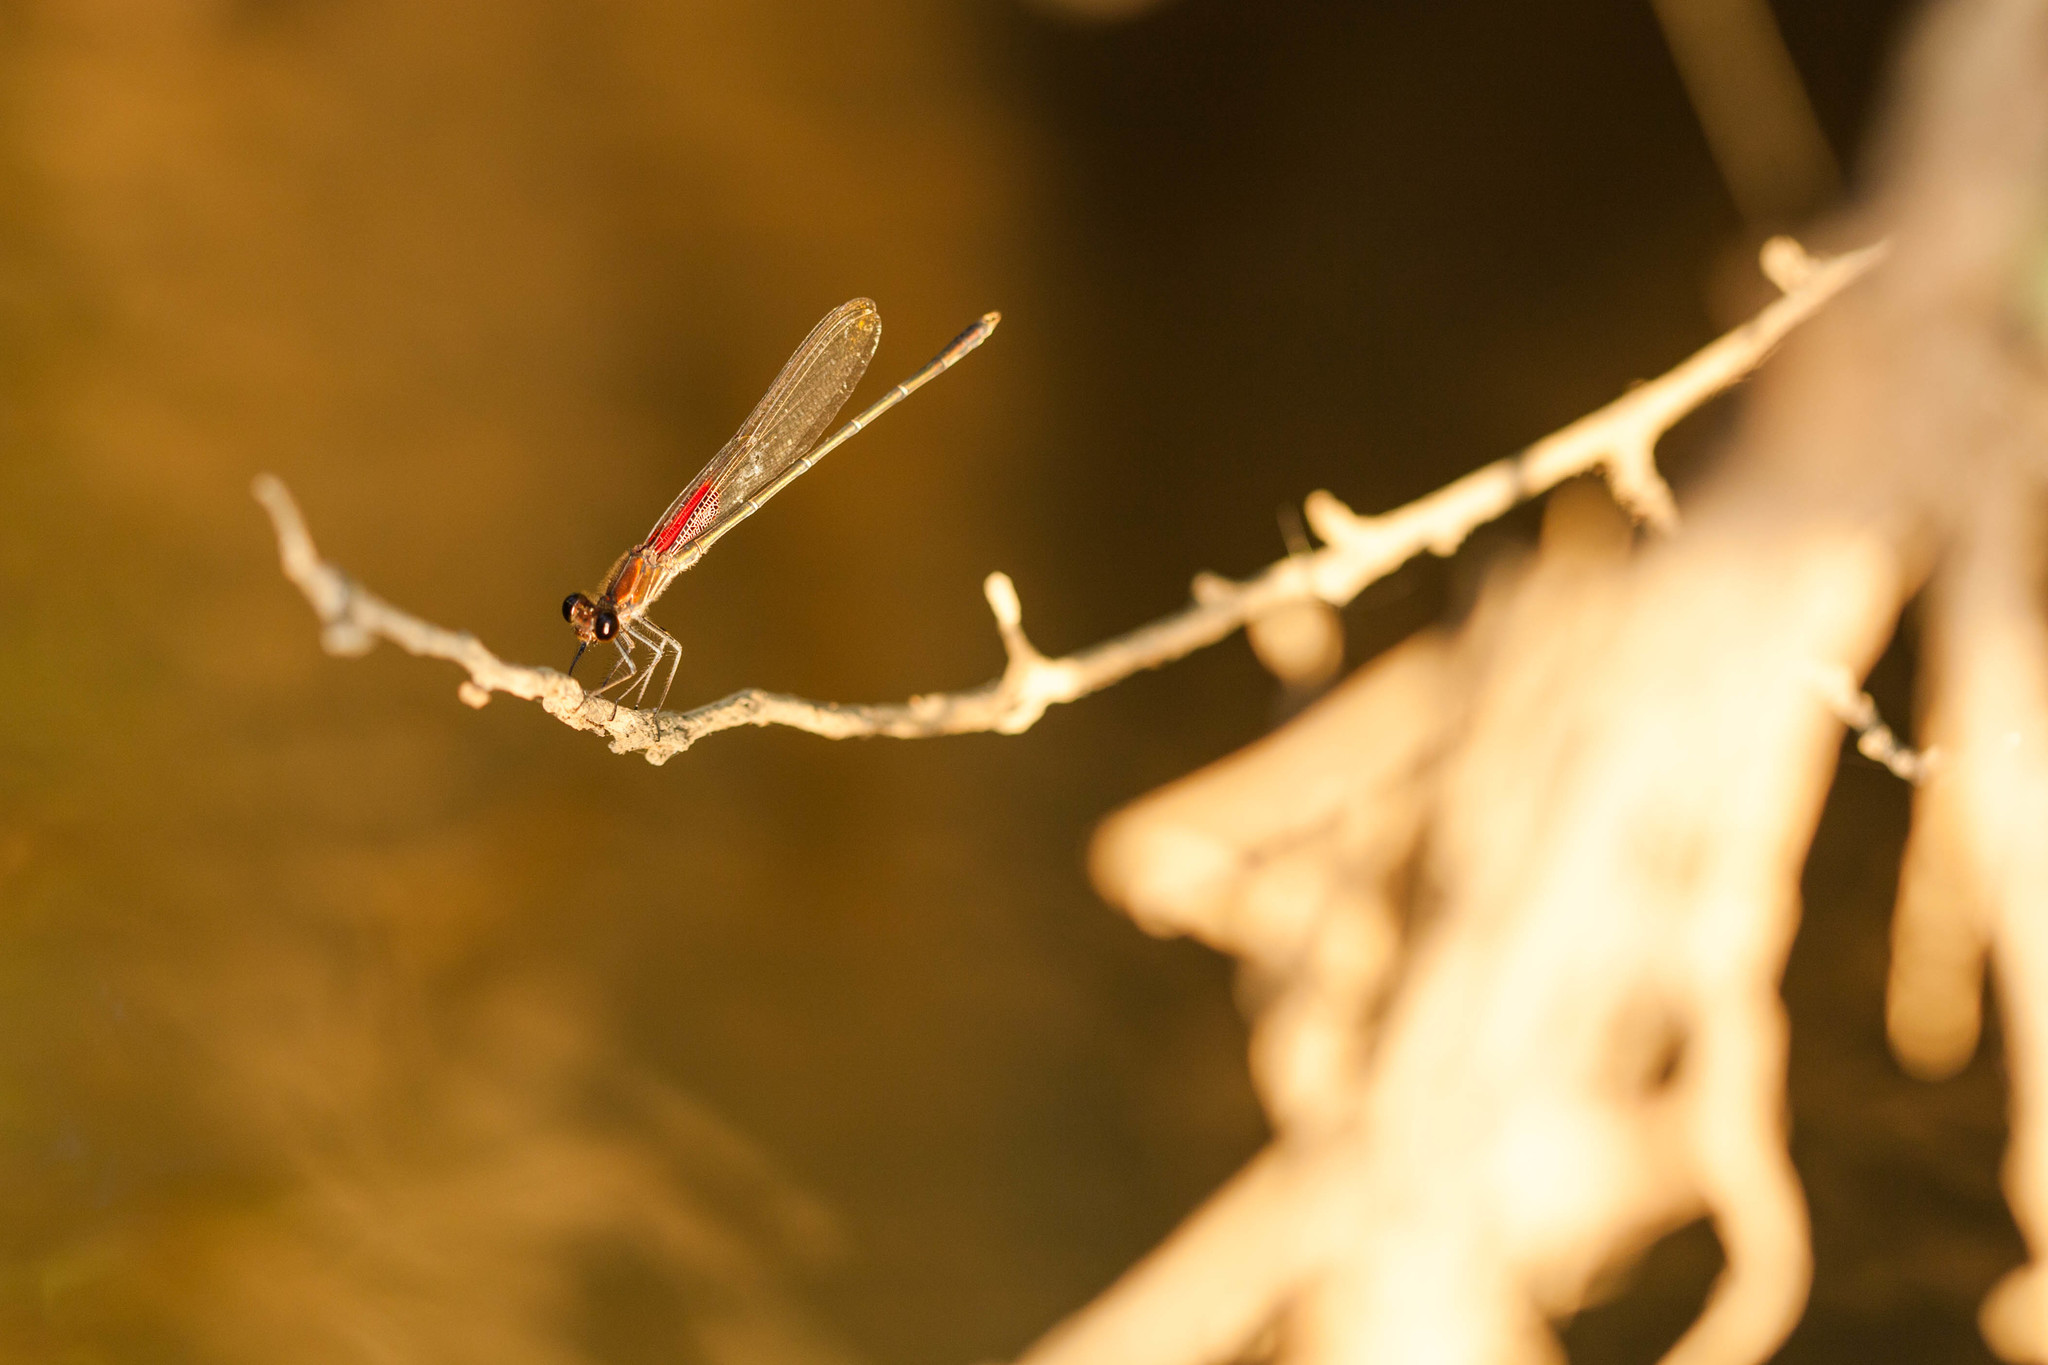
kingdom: Animalia
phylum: Arthropoda
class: Insecta
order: Odonata
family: Calopterygidae
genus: Hetaerina
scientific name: Hetaerina americana
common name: American rubyspot
